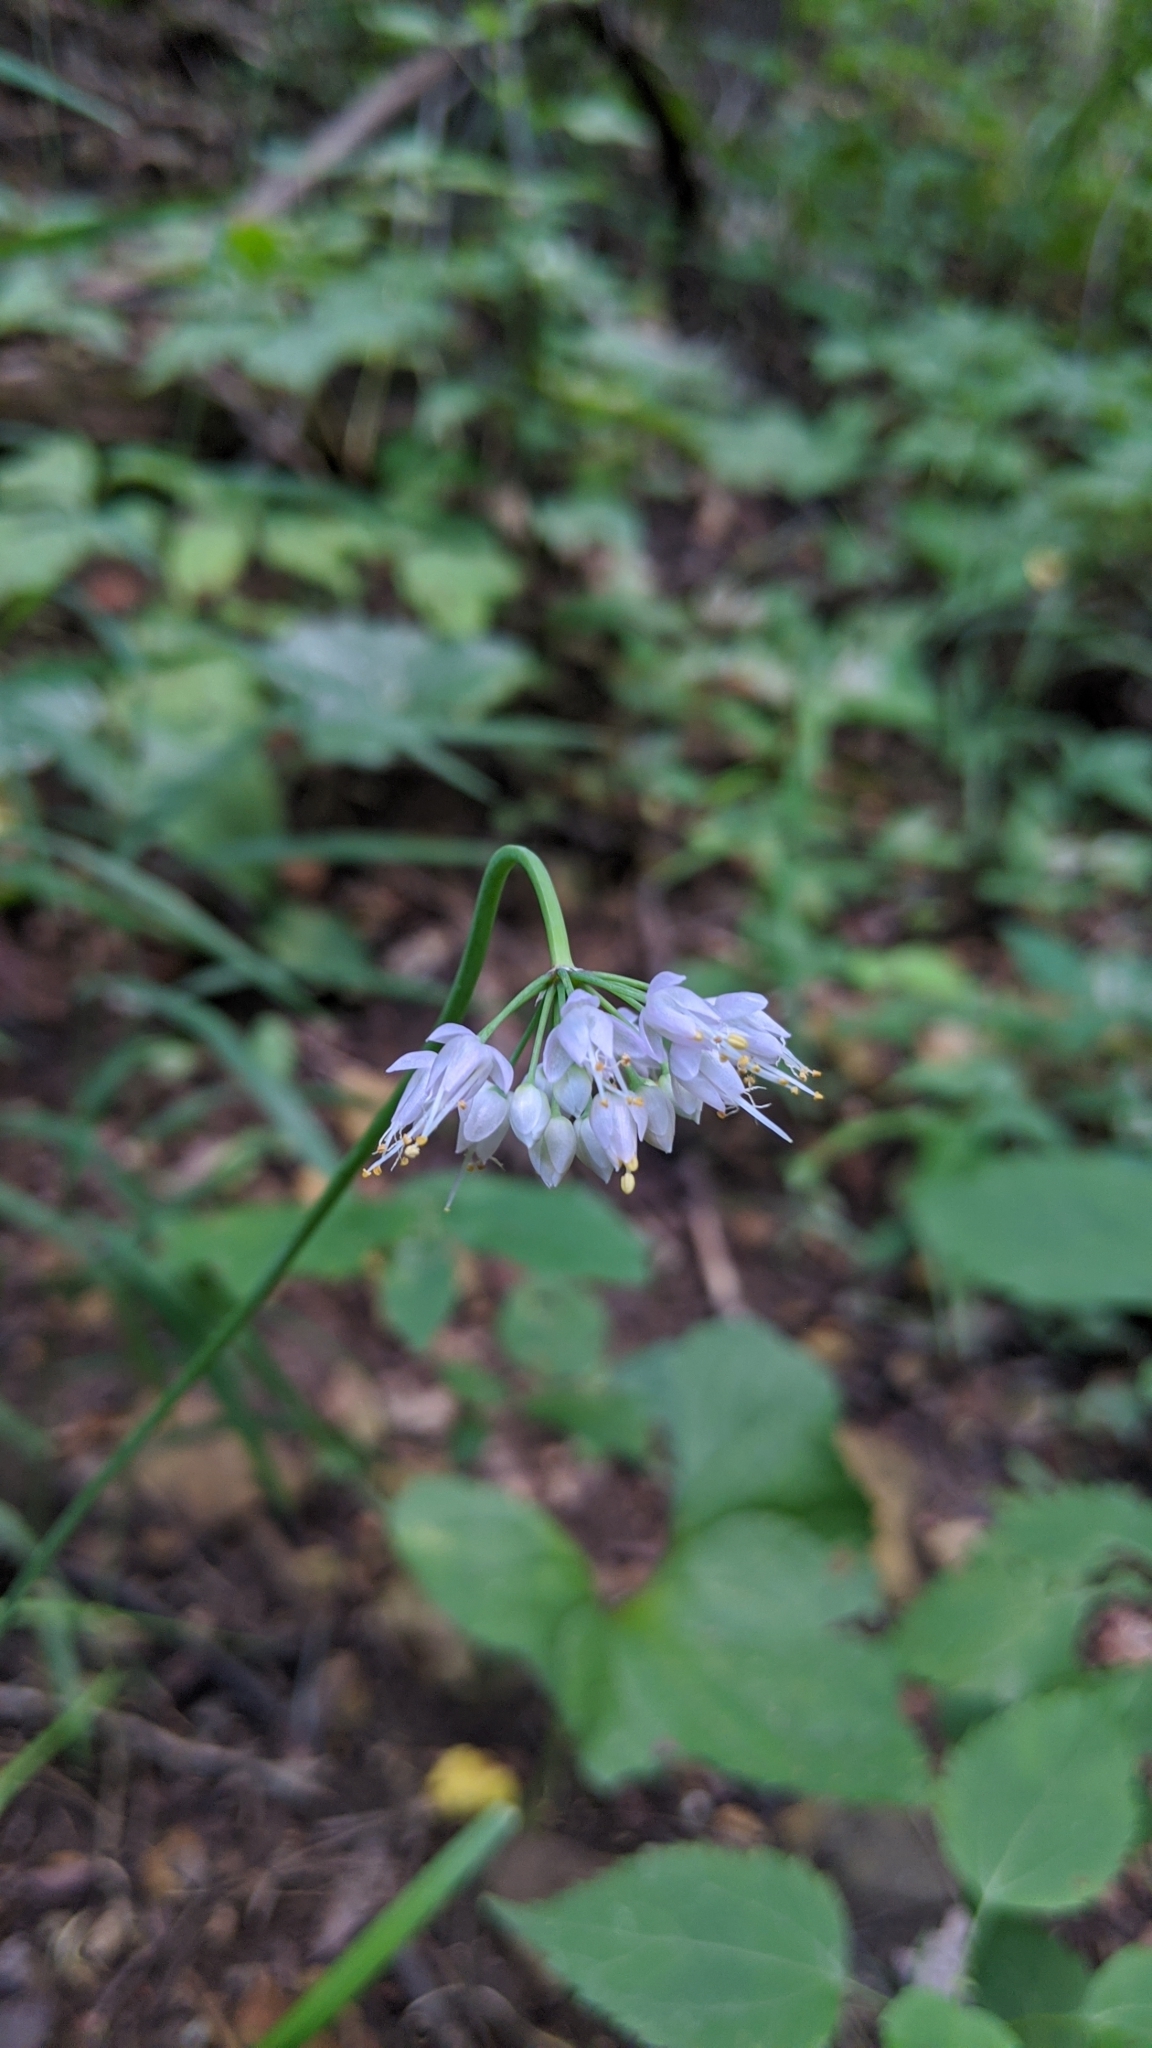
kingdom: Plantae
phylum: Tracheophyta
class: Liliopsida
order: Asparagales
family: Amaryllidaceae
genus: Allium
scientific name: Allium cernuum
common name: Nodding onion
